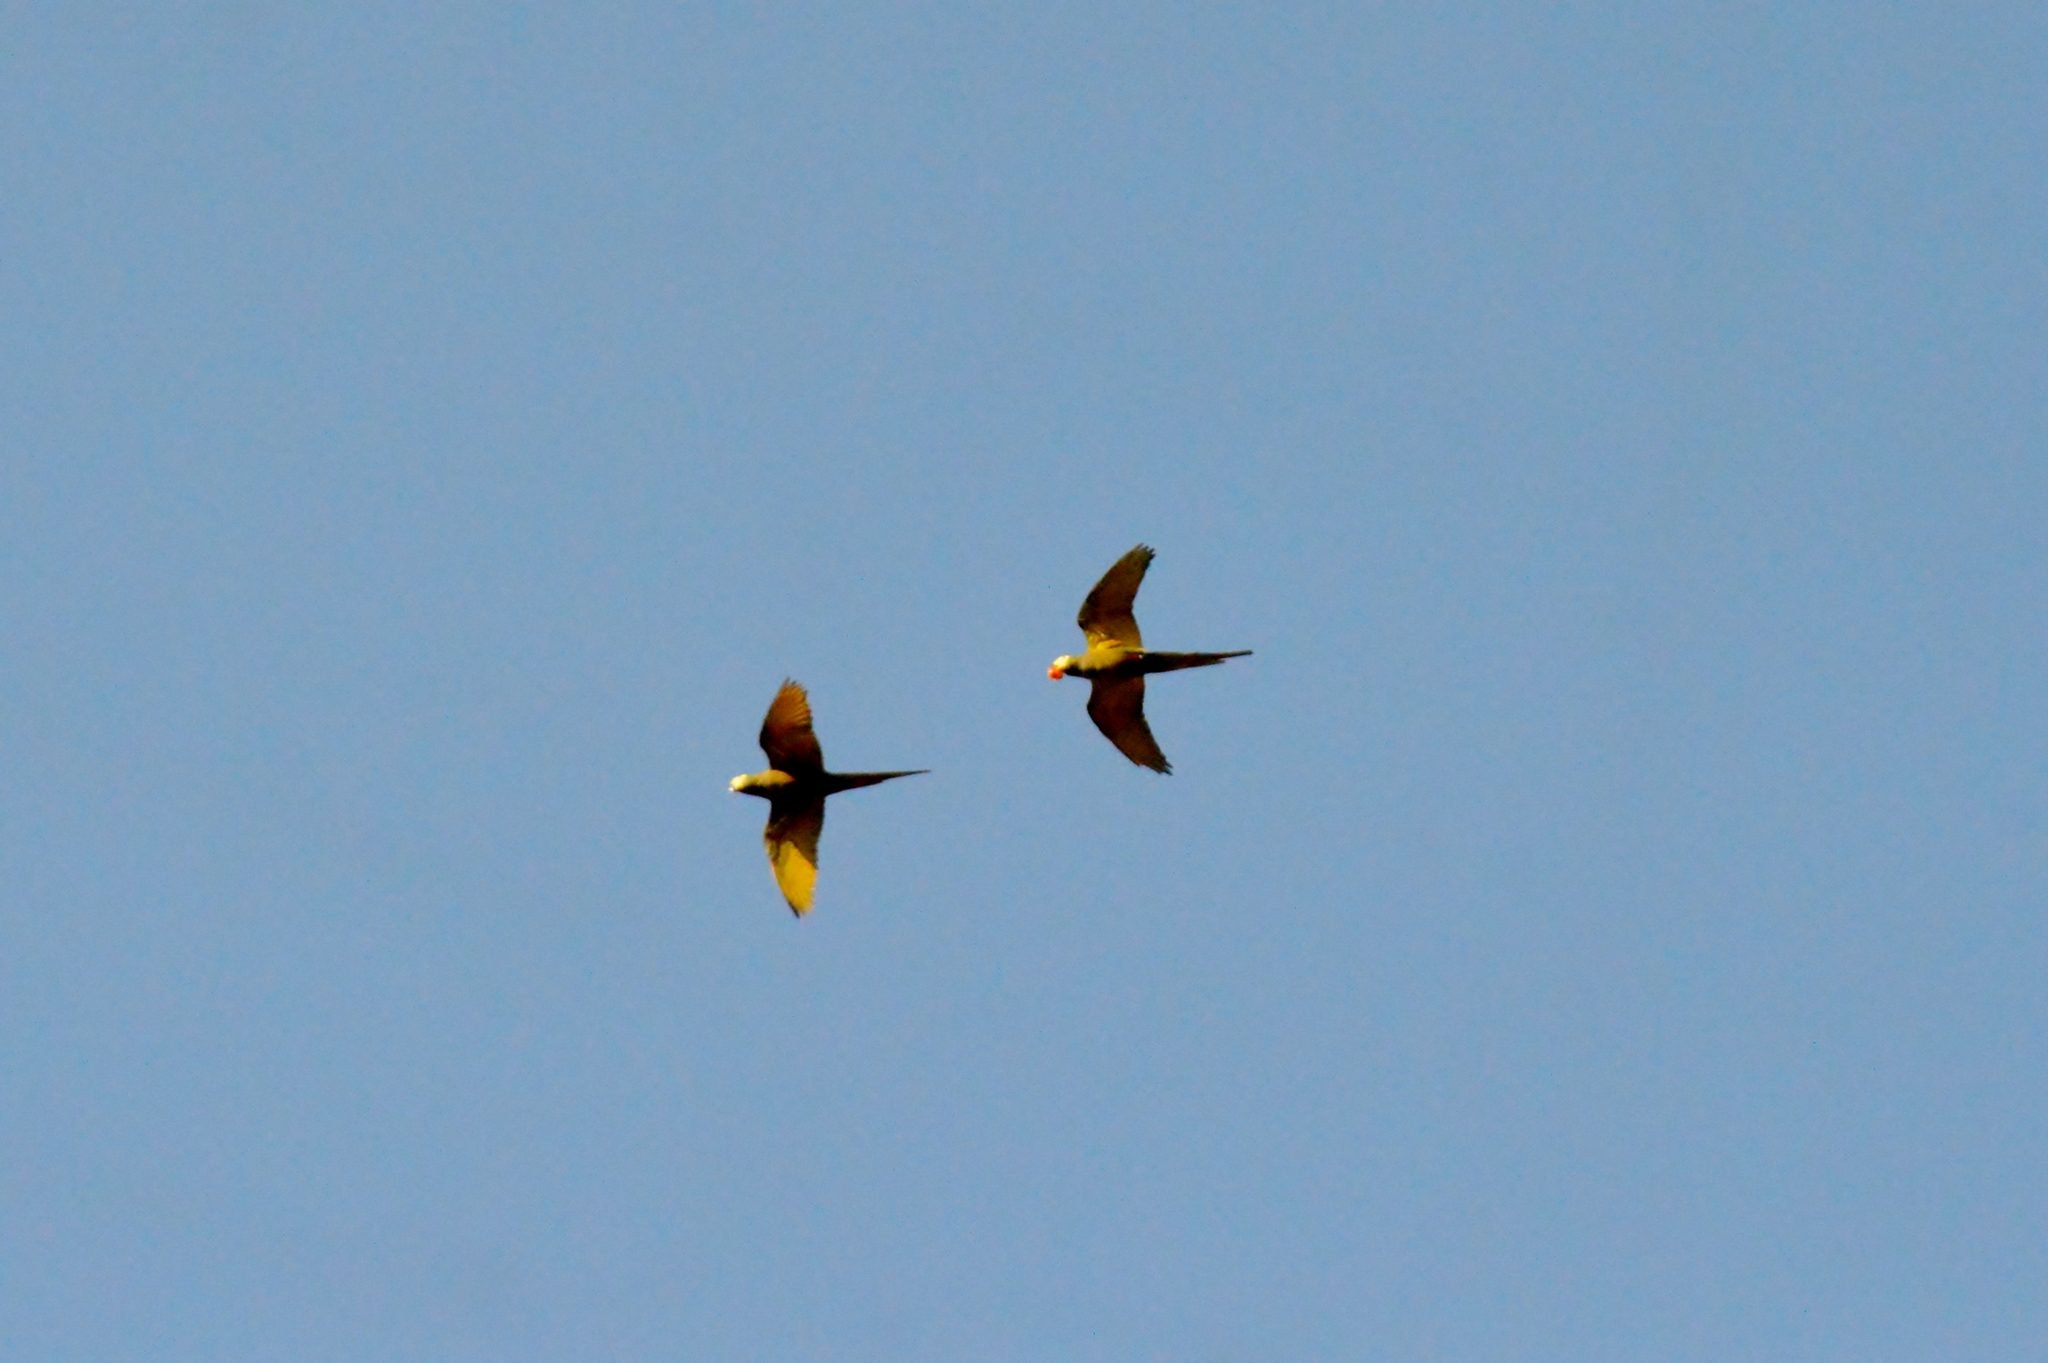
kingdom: Animalia
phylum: Chordata
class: Aves
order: Psittaciformes
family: Psittacidae
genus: Orthopsittaca
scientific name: Orthopsittaca manilata
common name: Red-bellied macaw
